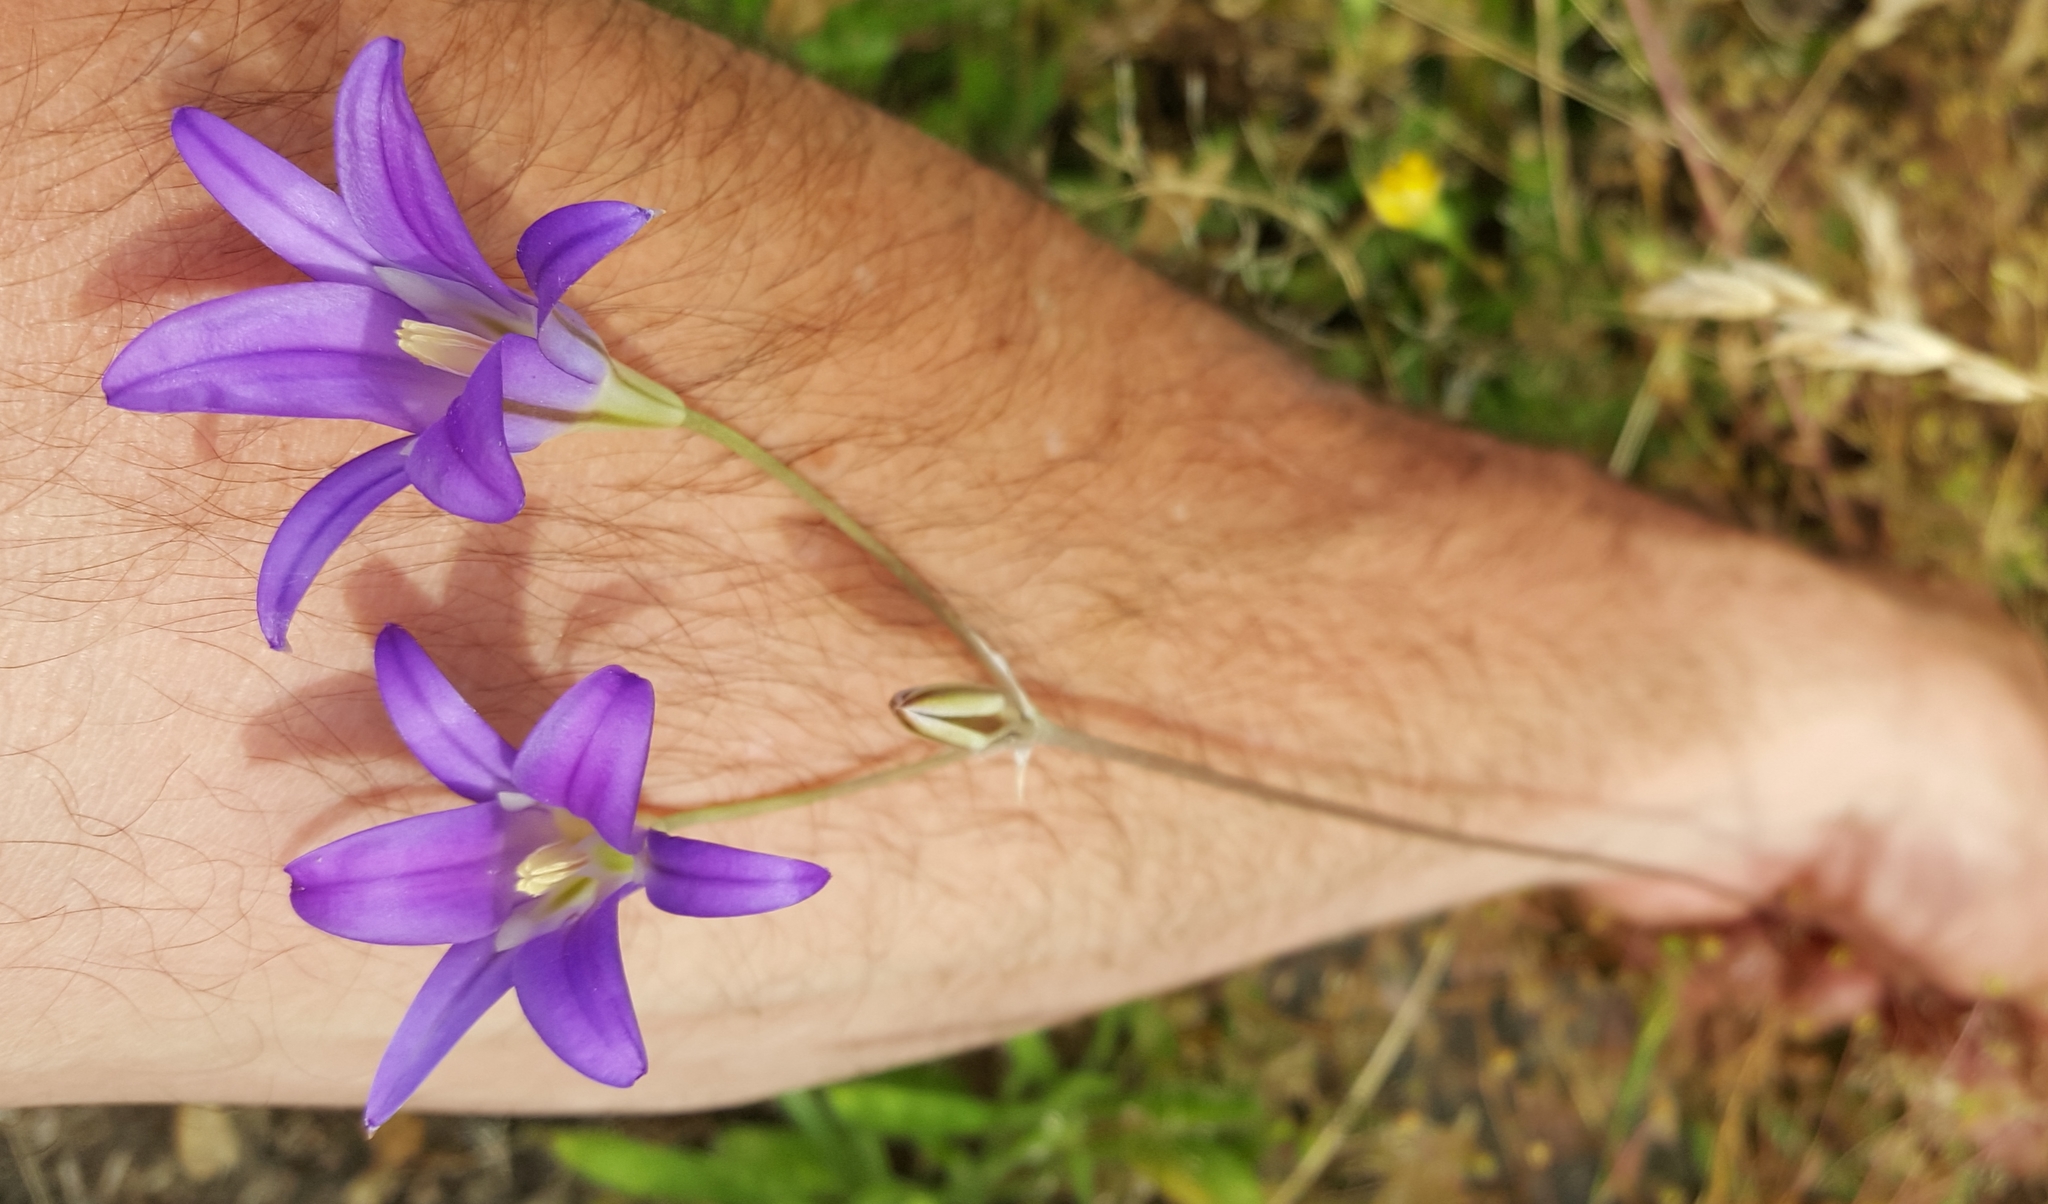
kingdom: Plantae
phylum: Tracheophyta
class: Liliopsida
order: Asparagales
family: Asparagaceae
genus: Brodiaea
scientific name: Brodiaea elegans
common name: Elegant cluster-lily
